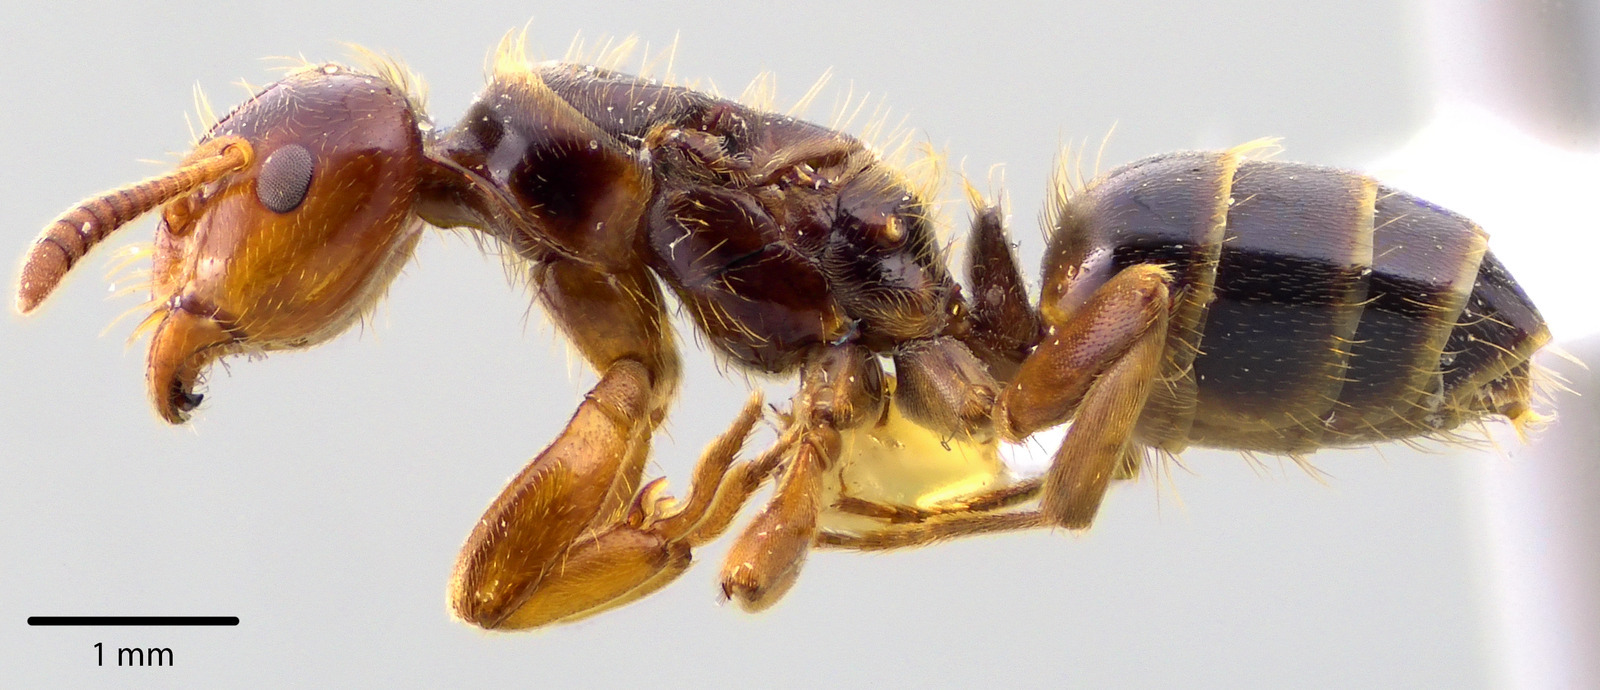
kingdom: Animalia
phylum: Arthropoda
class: Insecta
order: Hymenoptera
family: Formicidae
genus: Lasius
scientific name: Lasius claviger
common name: Common citronella ant
